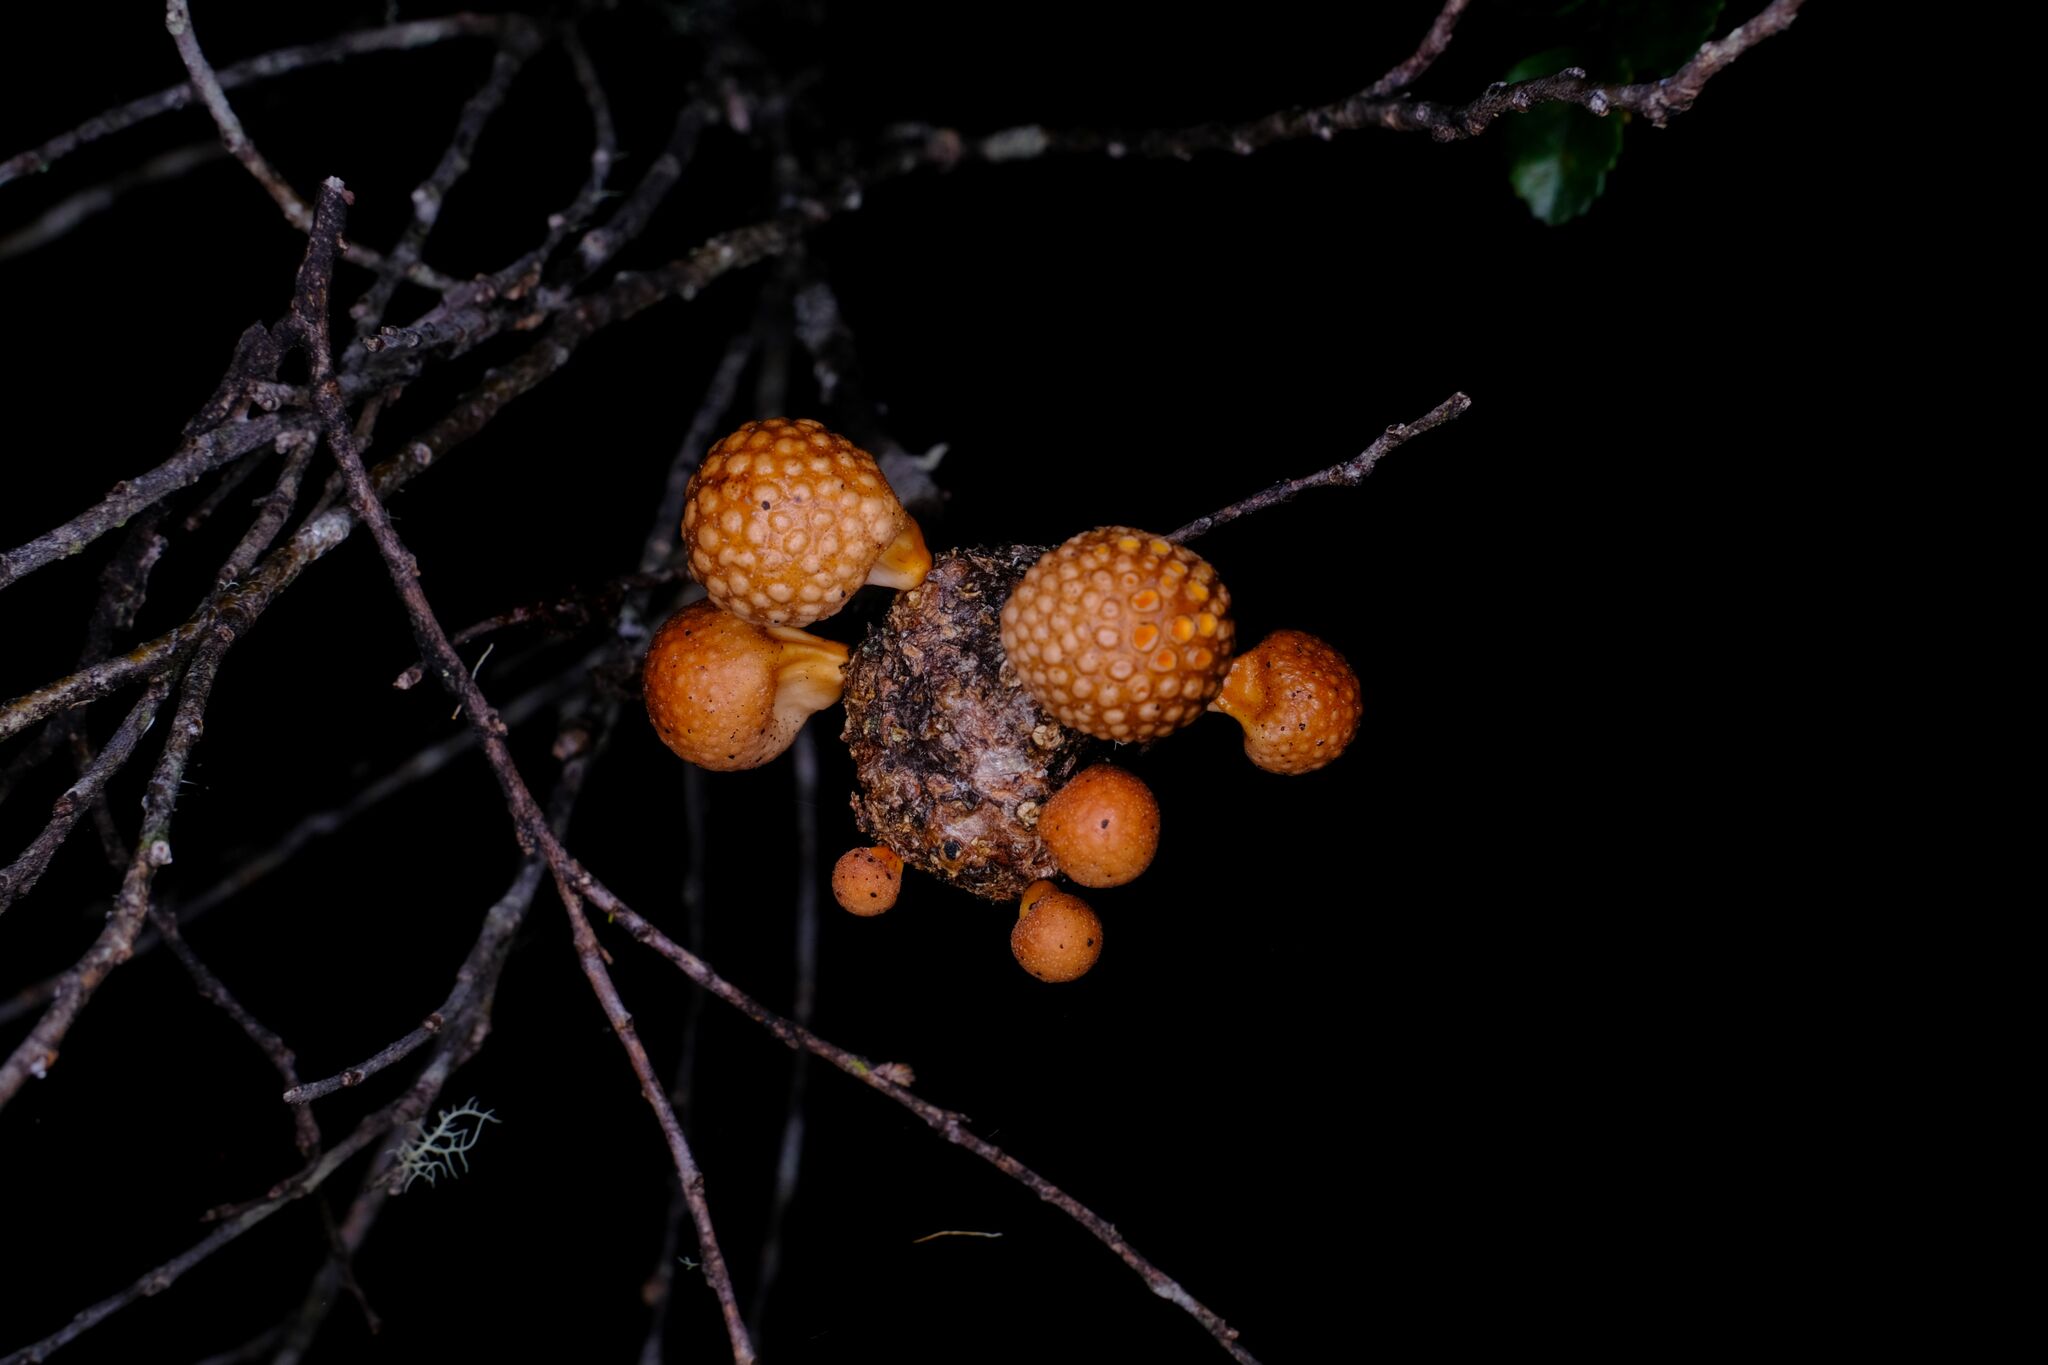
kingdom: Fungi
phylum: Ascomycota
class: Leotiomycetes
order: Cyttariales
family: Cyttariaceae
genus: Cyttaria
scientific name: Cyttaria gunnii
